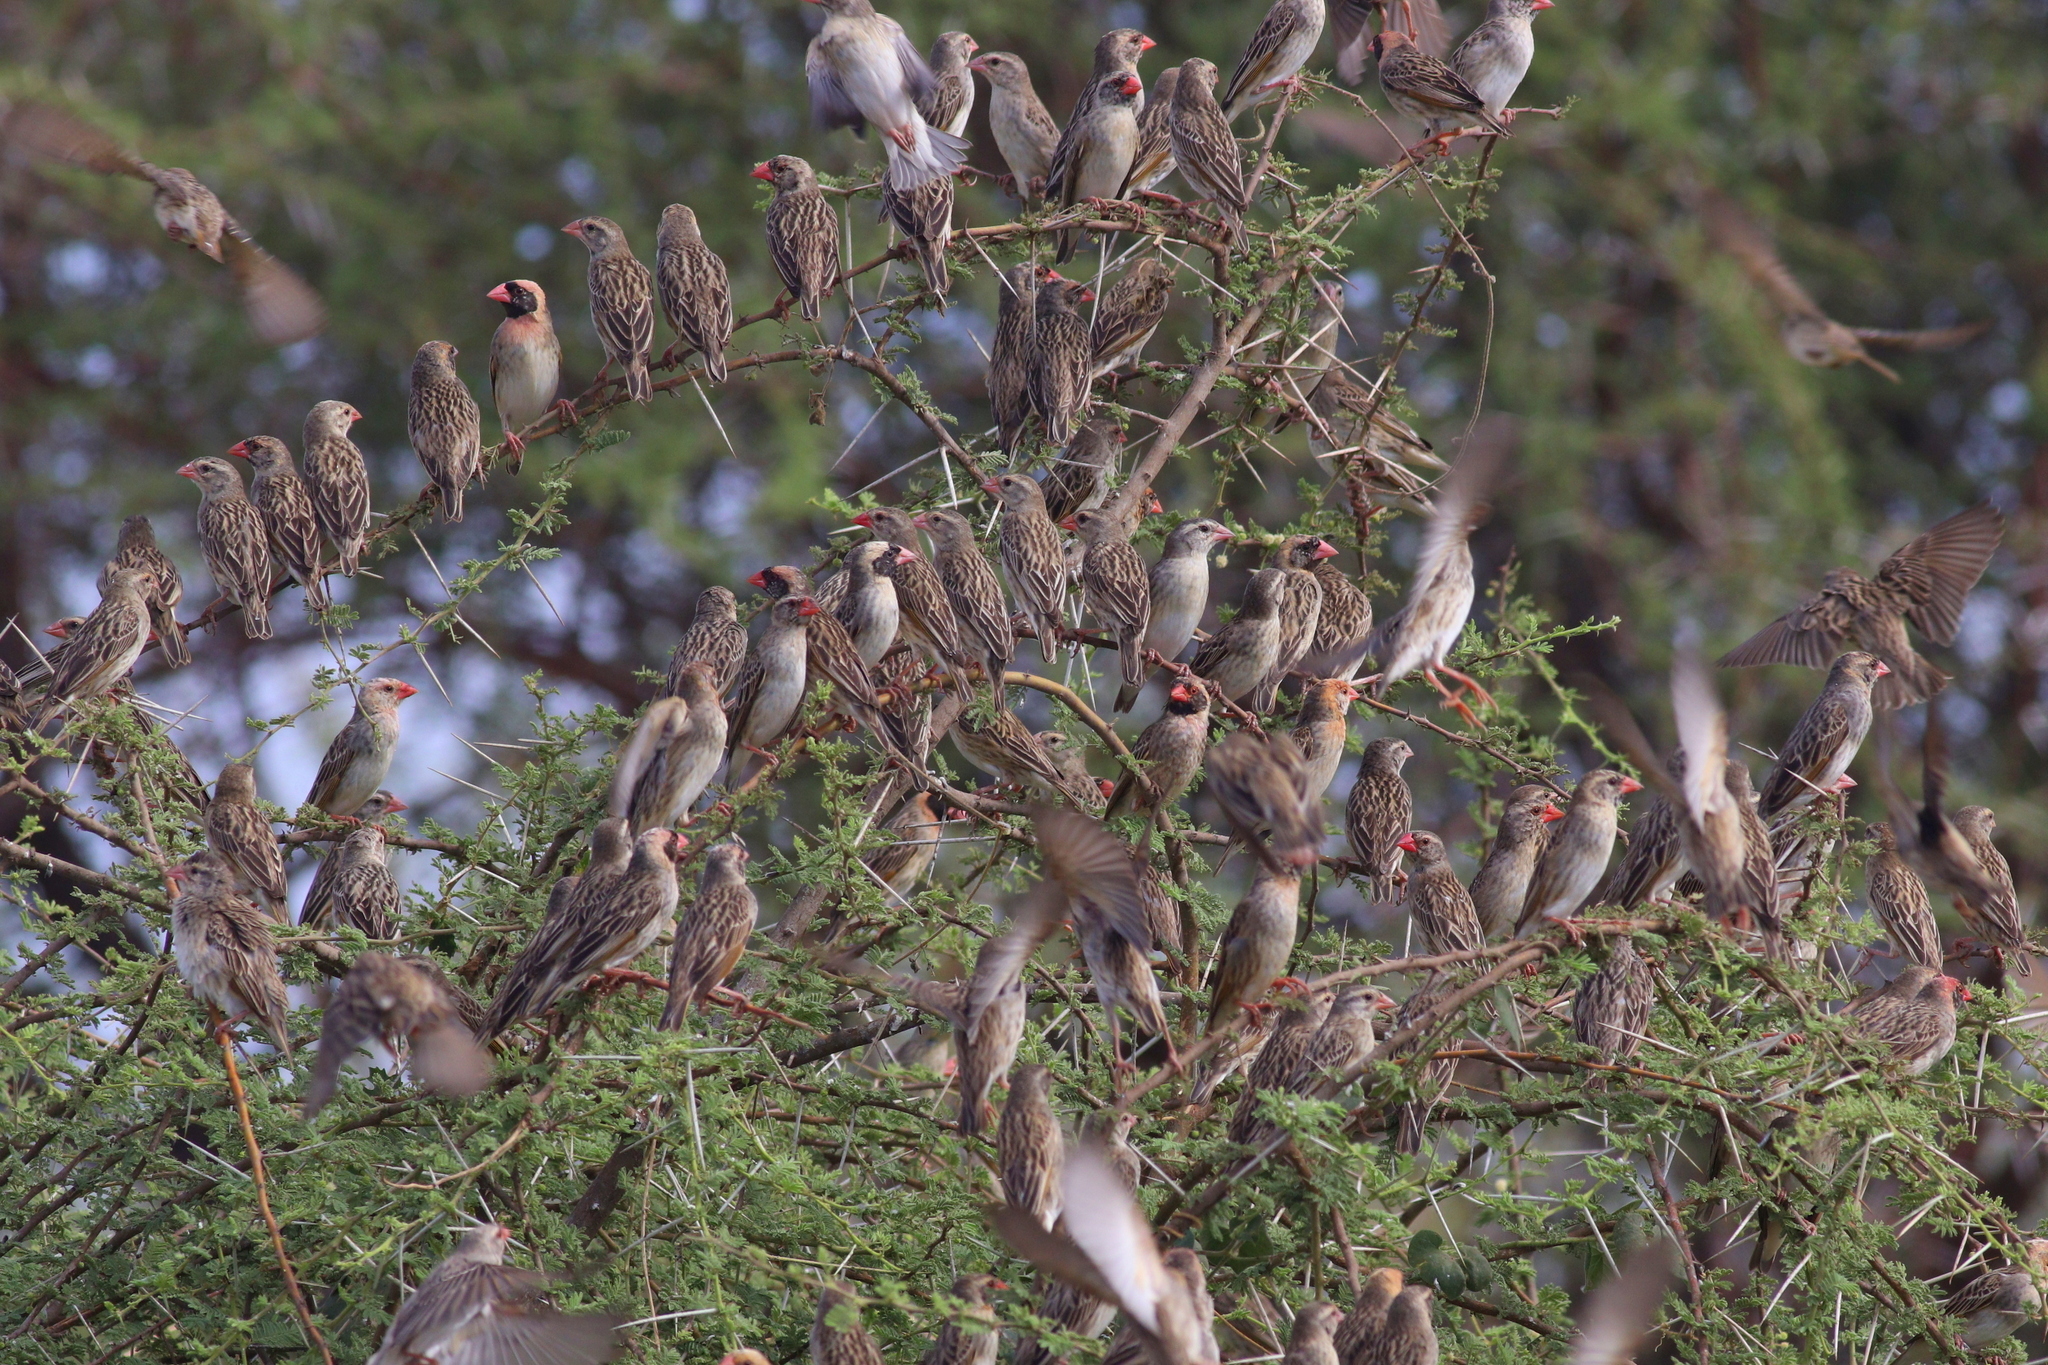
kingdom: Animalia
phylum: Chordata
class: Aves
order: Passeriformes
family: Ploceidae
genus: Quelea
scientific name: Quelea quelea
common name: Red-billed quelea
